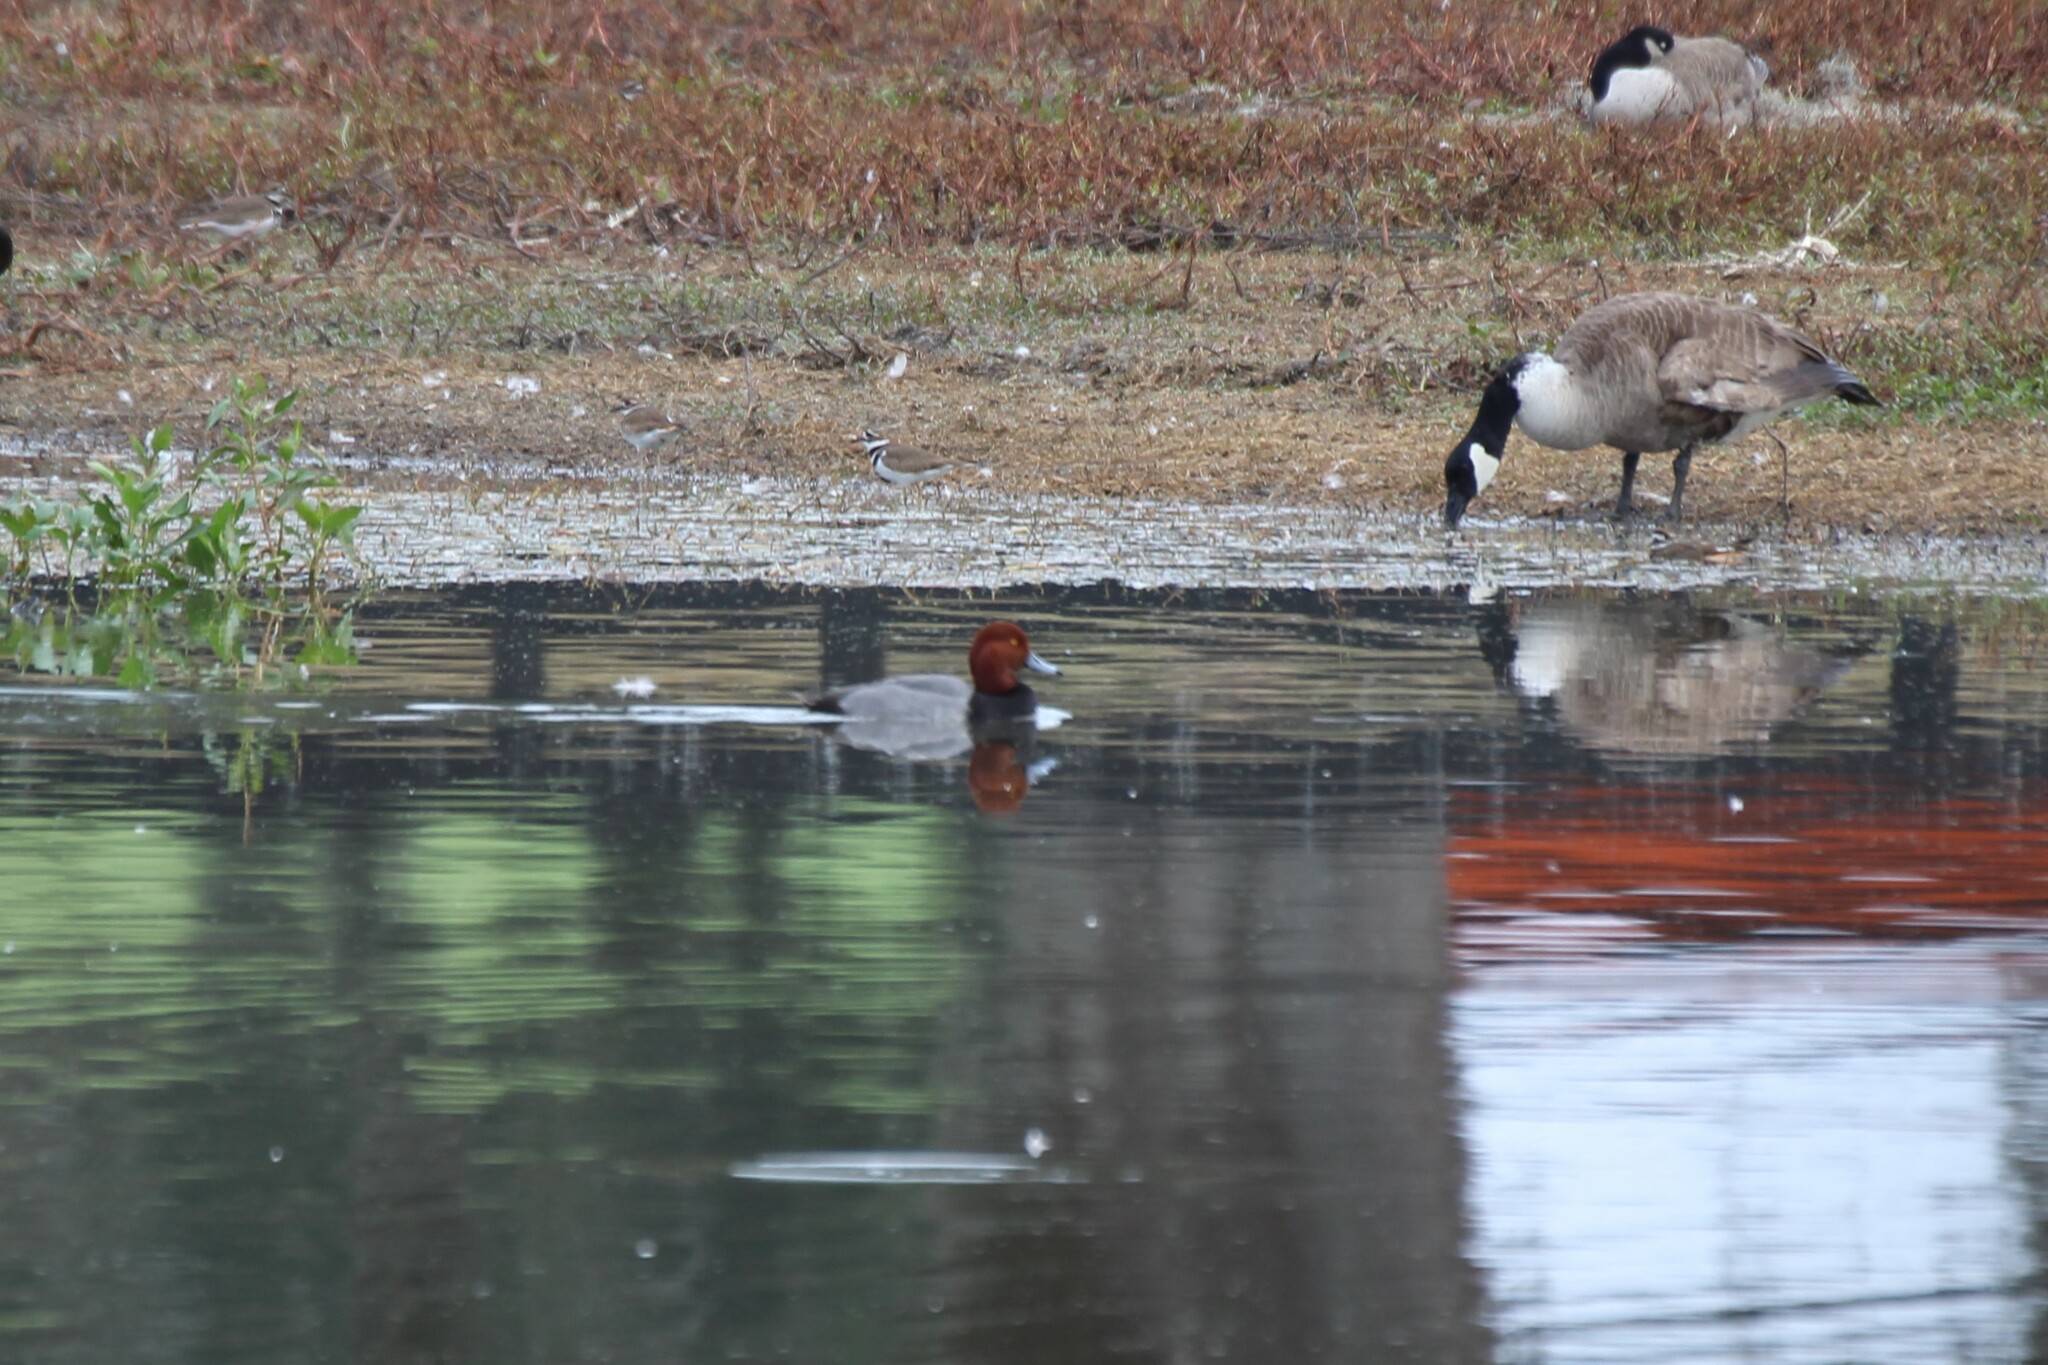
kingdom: Animalia
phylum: Chordata
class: Aves
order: Anseriformes
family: Anatidae
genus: Aythya
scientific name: Aythya americana
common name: Redhead
